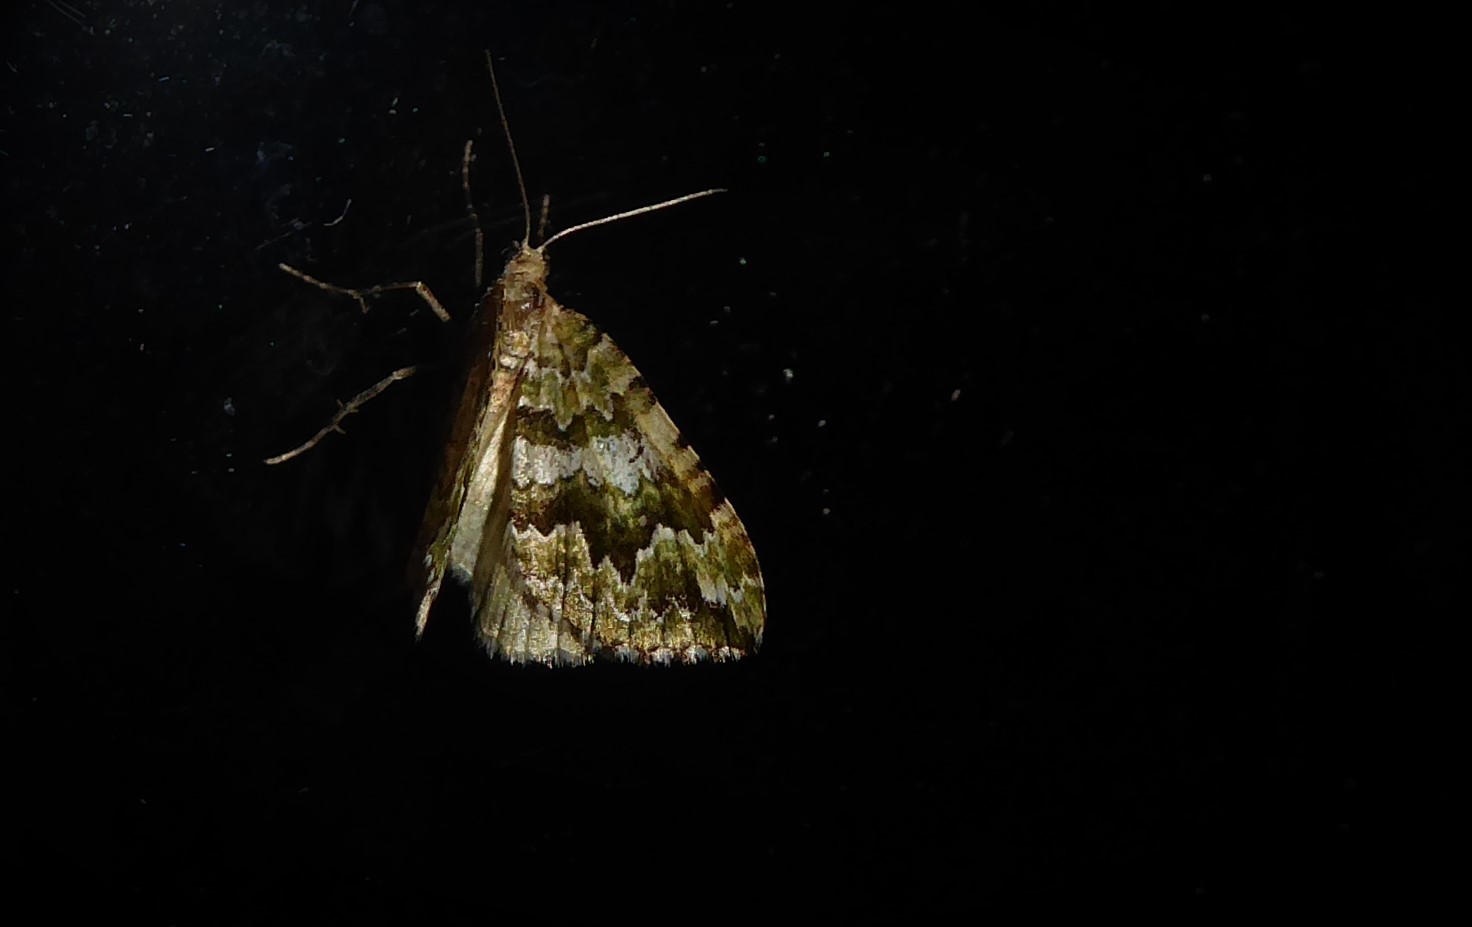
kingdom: Animalia
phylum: Arthropoda
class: Insecta
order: Lepidoptera
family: Geometridae
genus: Asaphodes
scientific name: Asaphodes beata
